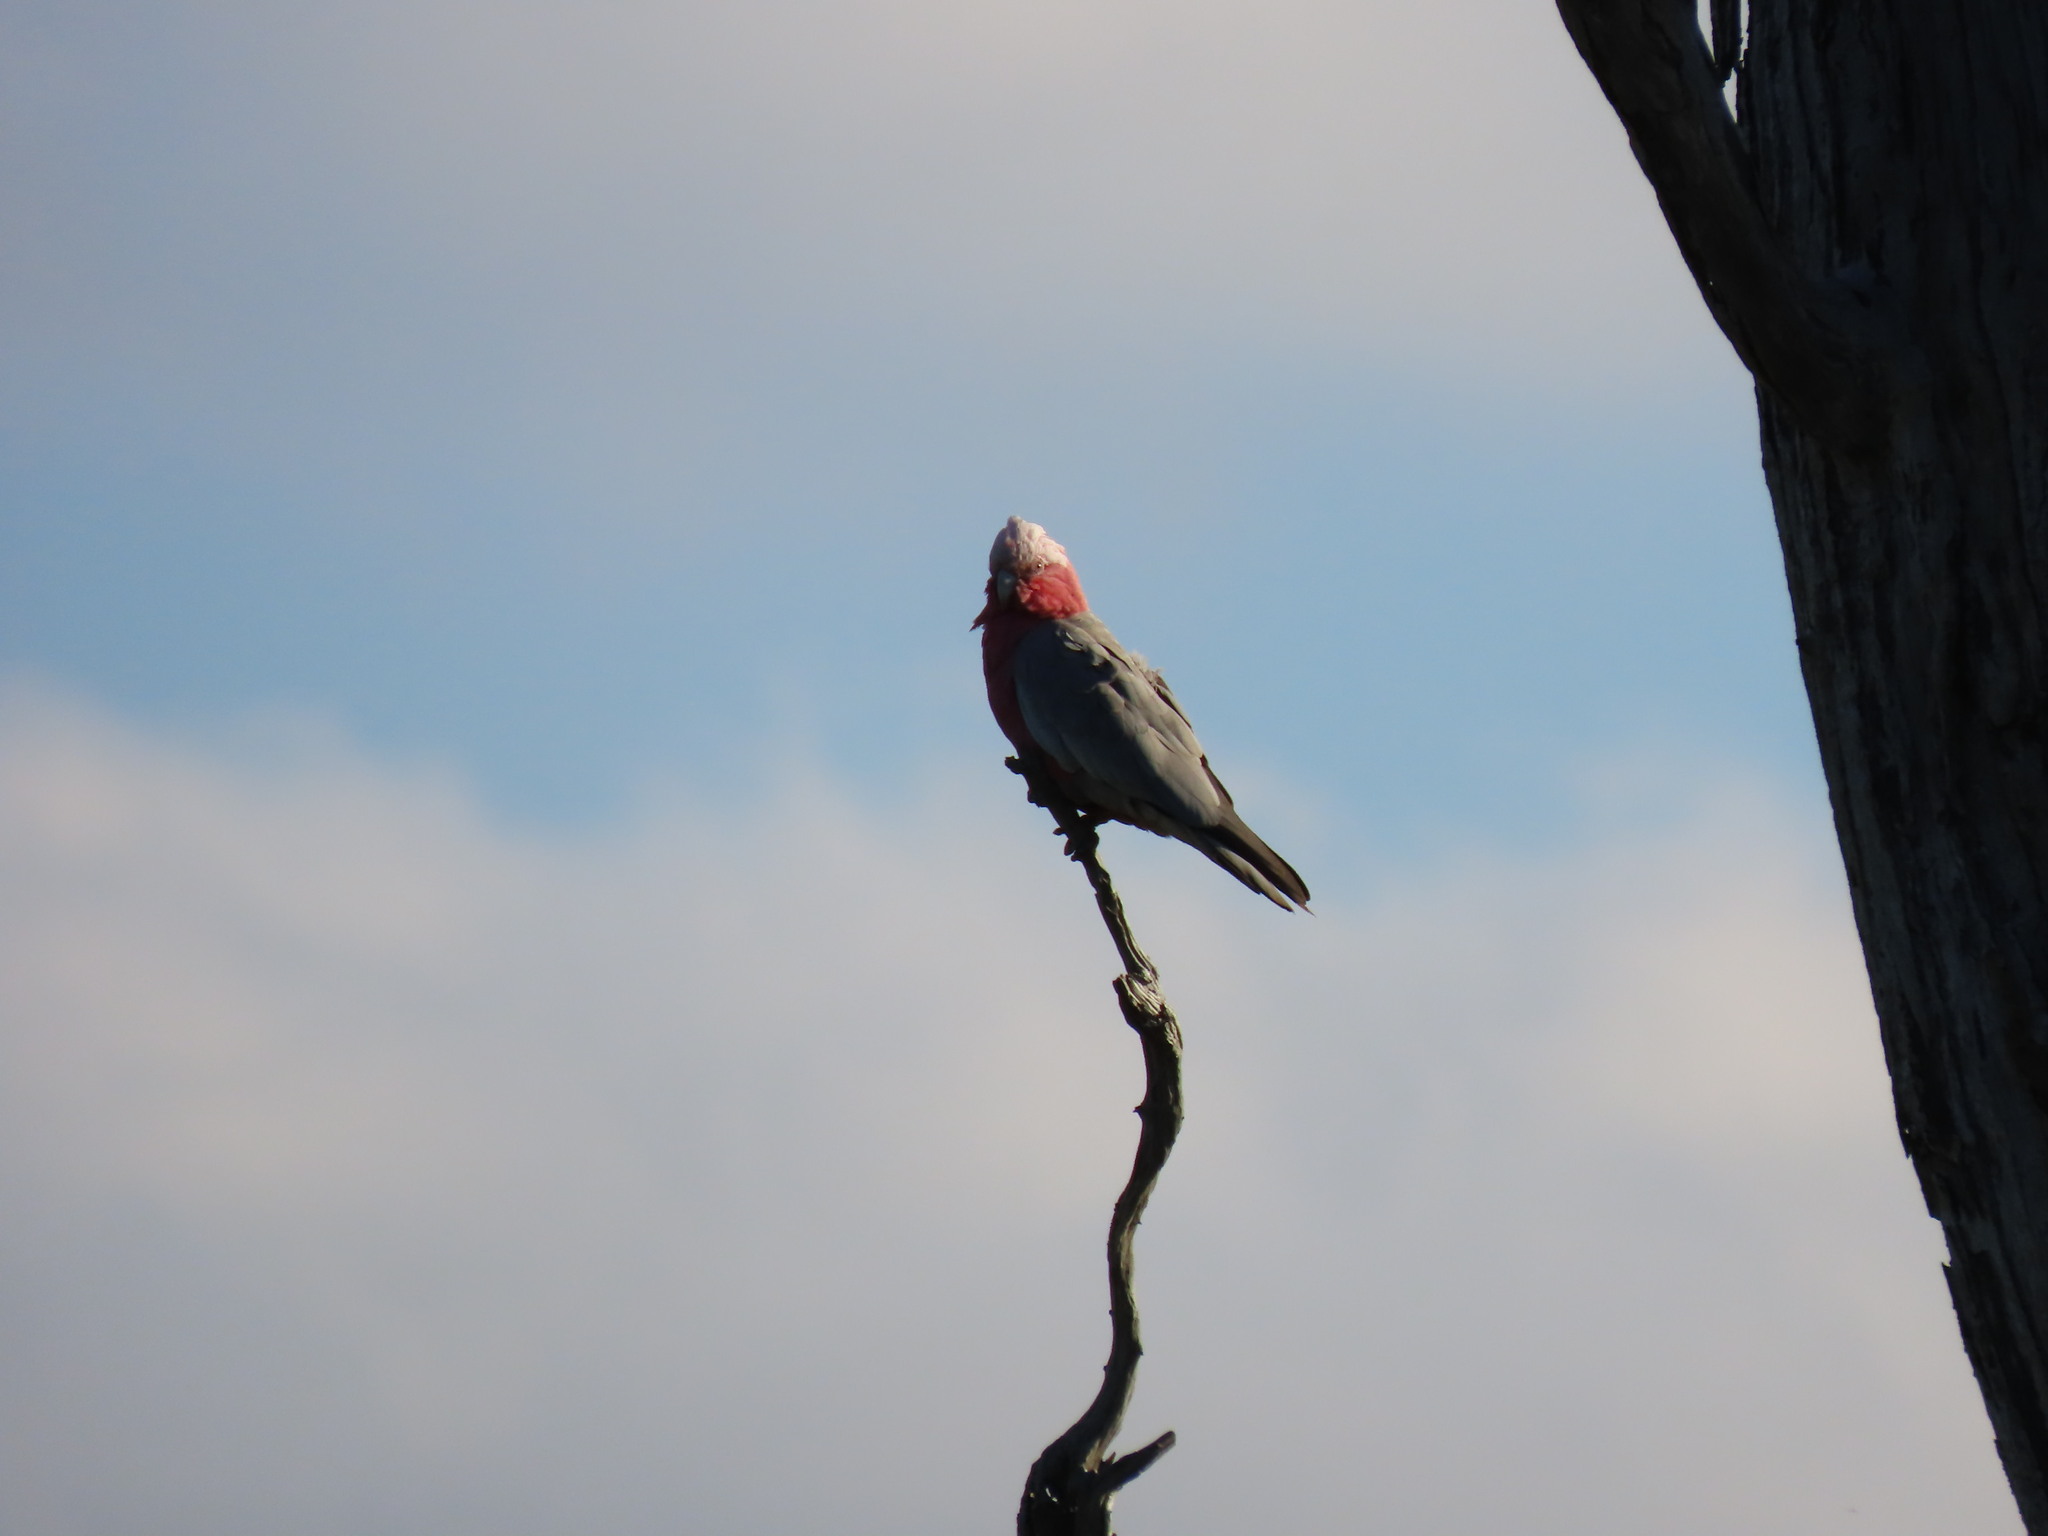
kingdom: Animalia
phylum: Chordata
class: Aves
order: Psittaciformes
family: Psittacidae
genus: Eolophus
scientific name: Eolophus roseicapilla
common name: Galah
